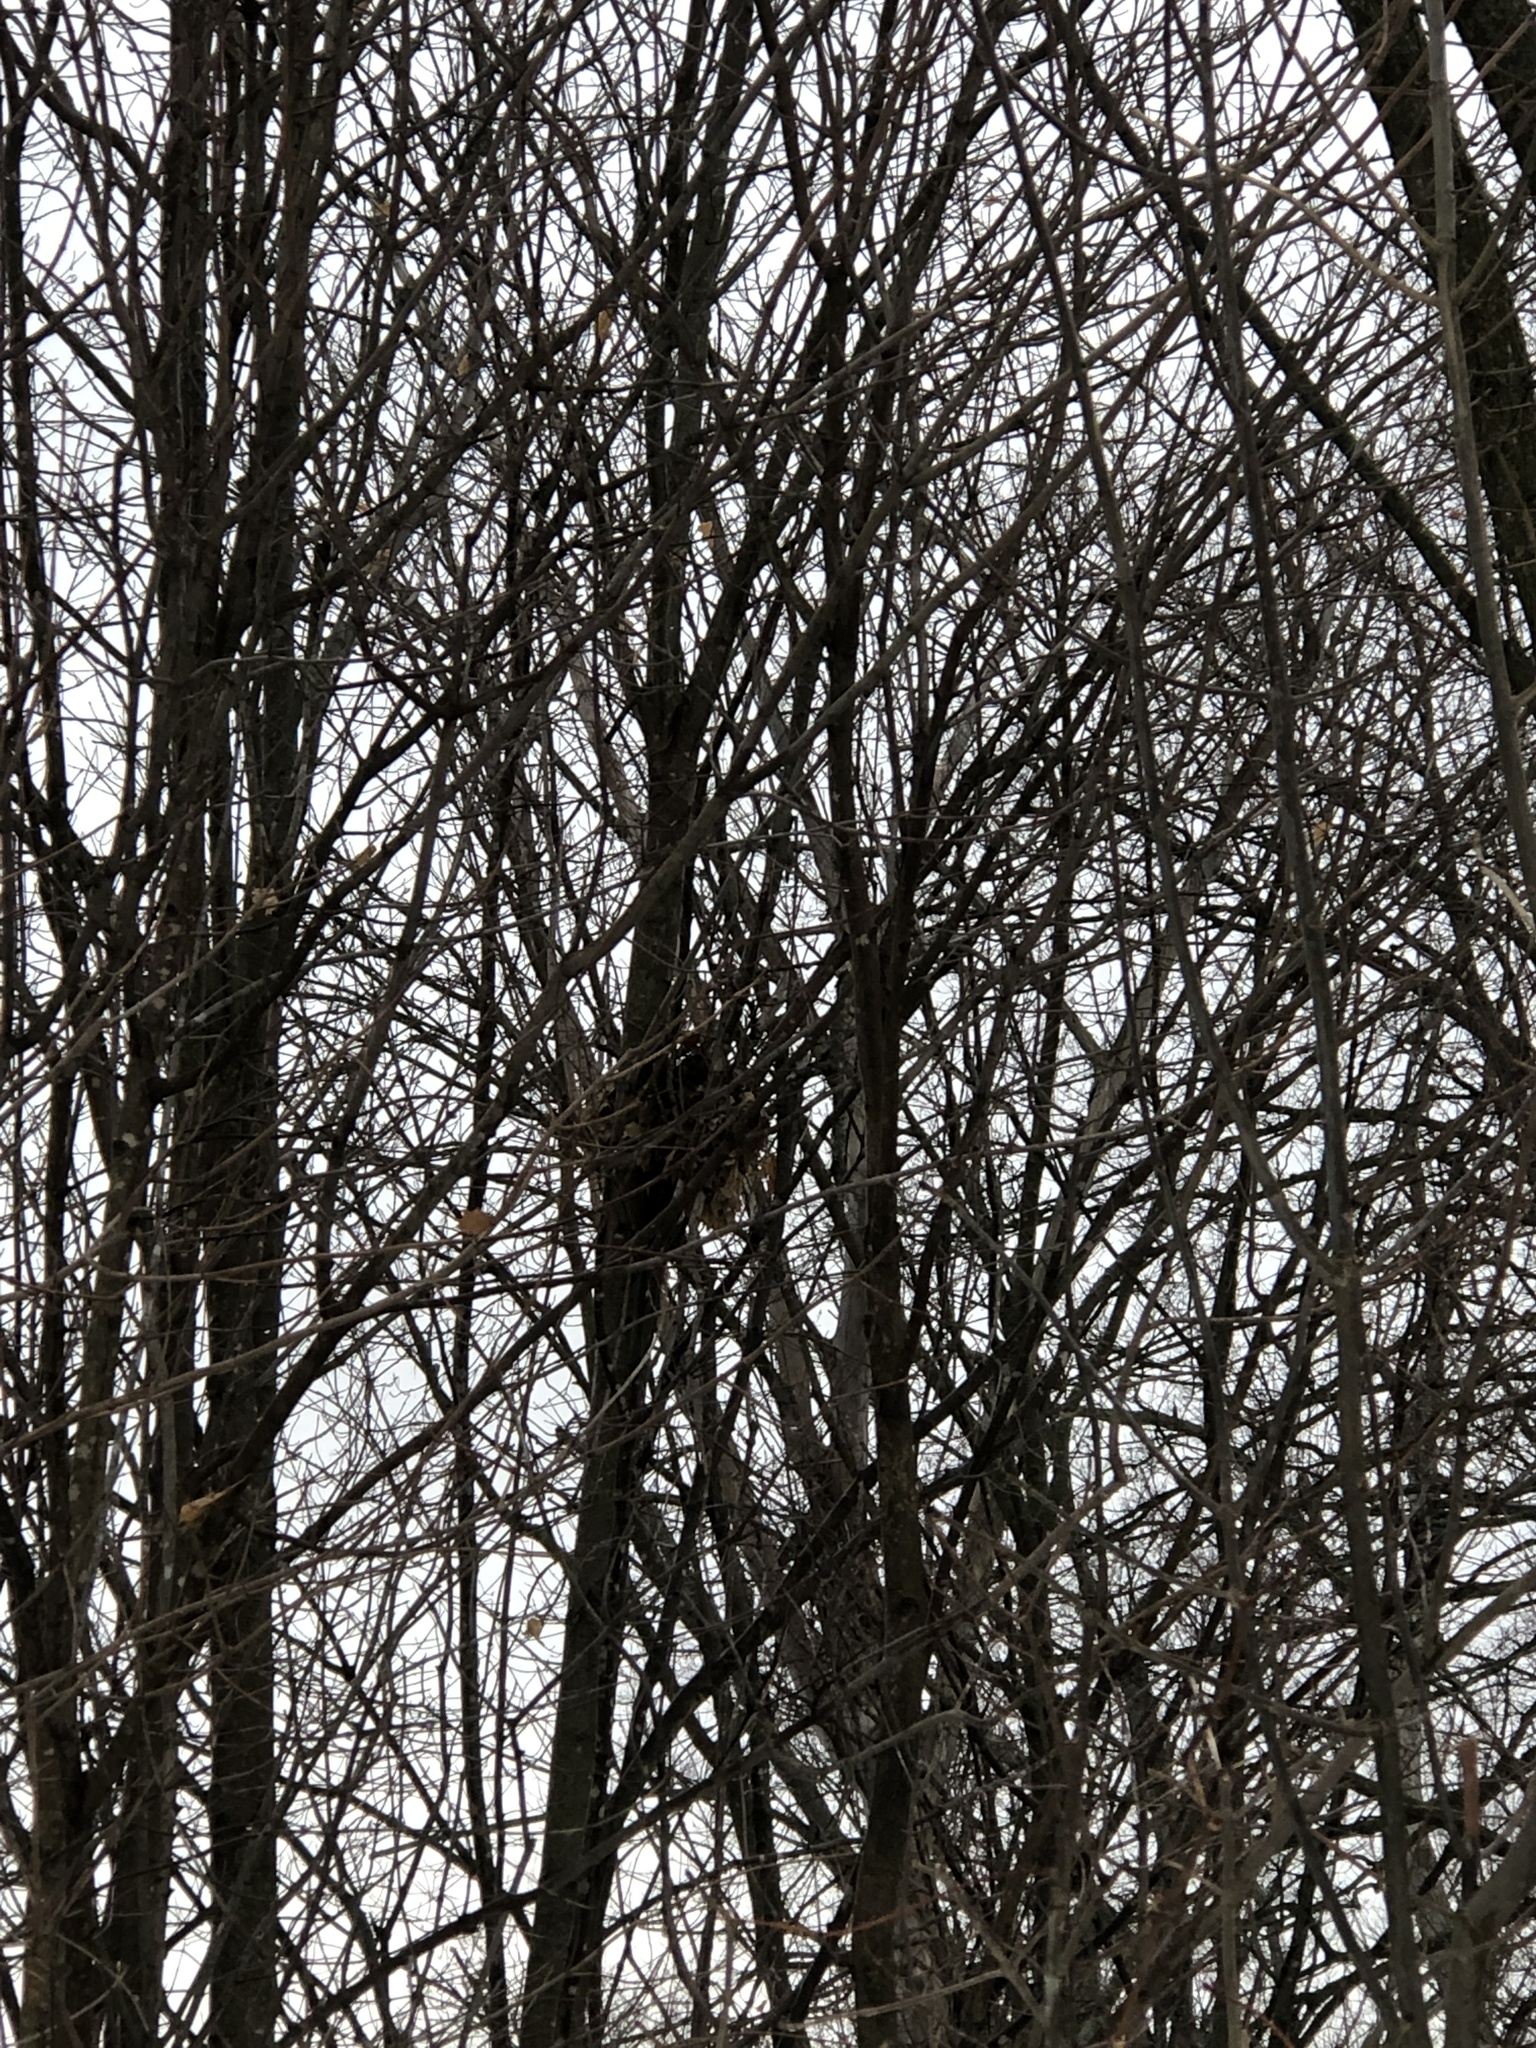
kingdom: Animalia
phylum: Chordata
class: Mammalia
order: Rodentia
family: Sciuridae
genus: Sciurus
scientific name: Sciurus carolinensis
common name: Eastern gray squirrel
